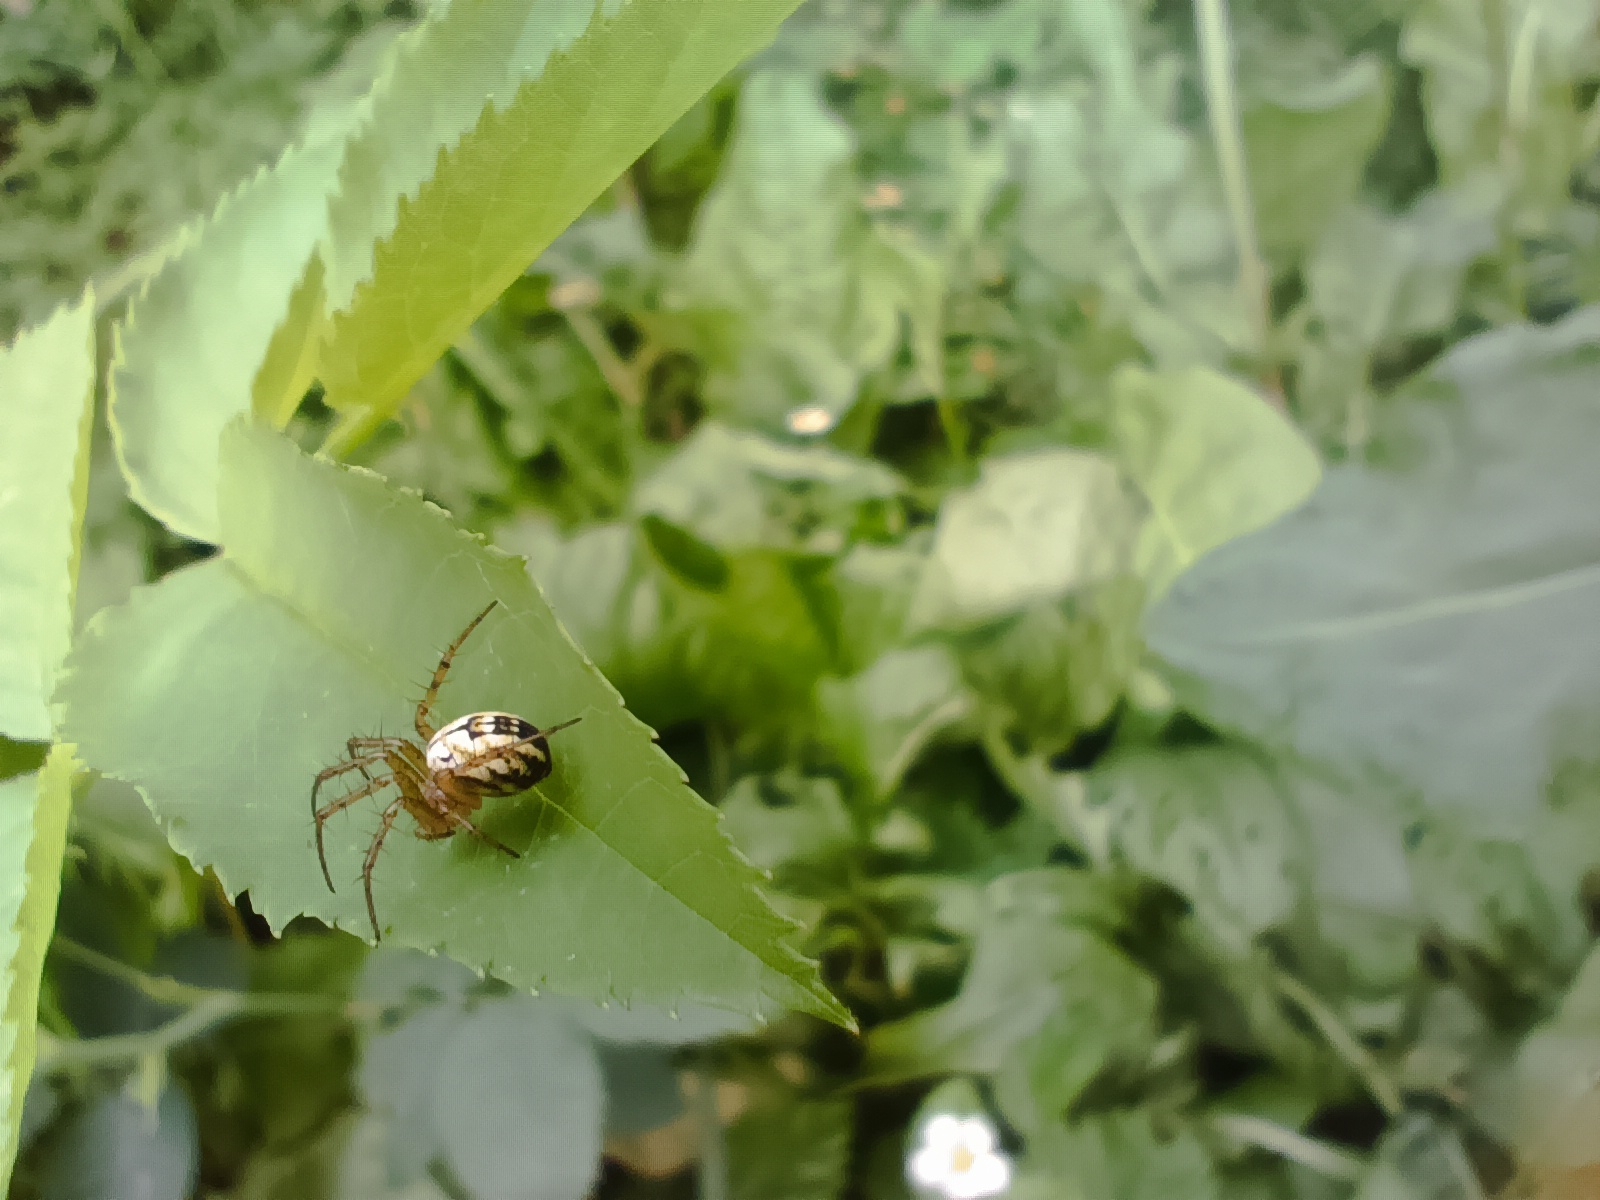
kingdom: Animalia
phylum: Arthropoda
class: Arachnida
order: Araneae
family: Araneidae
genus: Mangora
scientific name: Mangora acalypha
